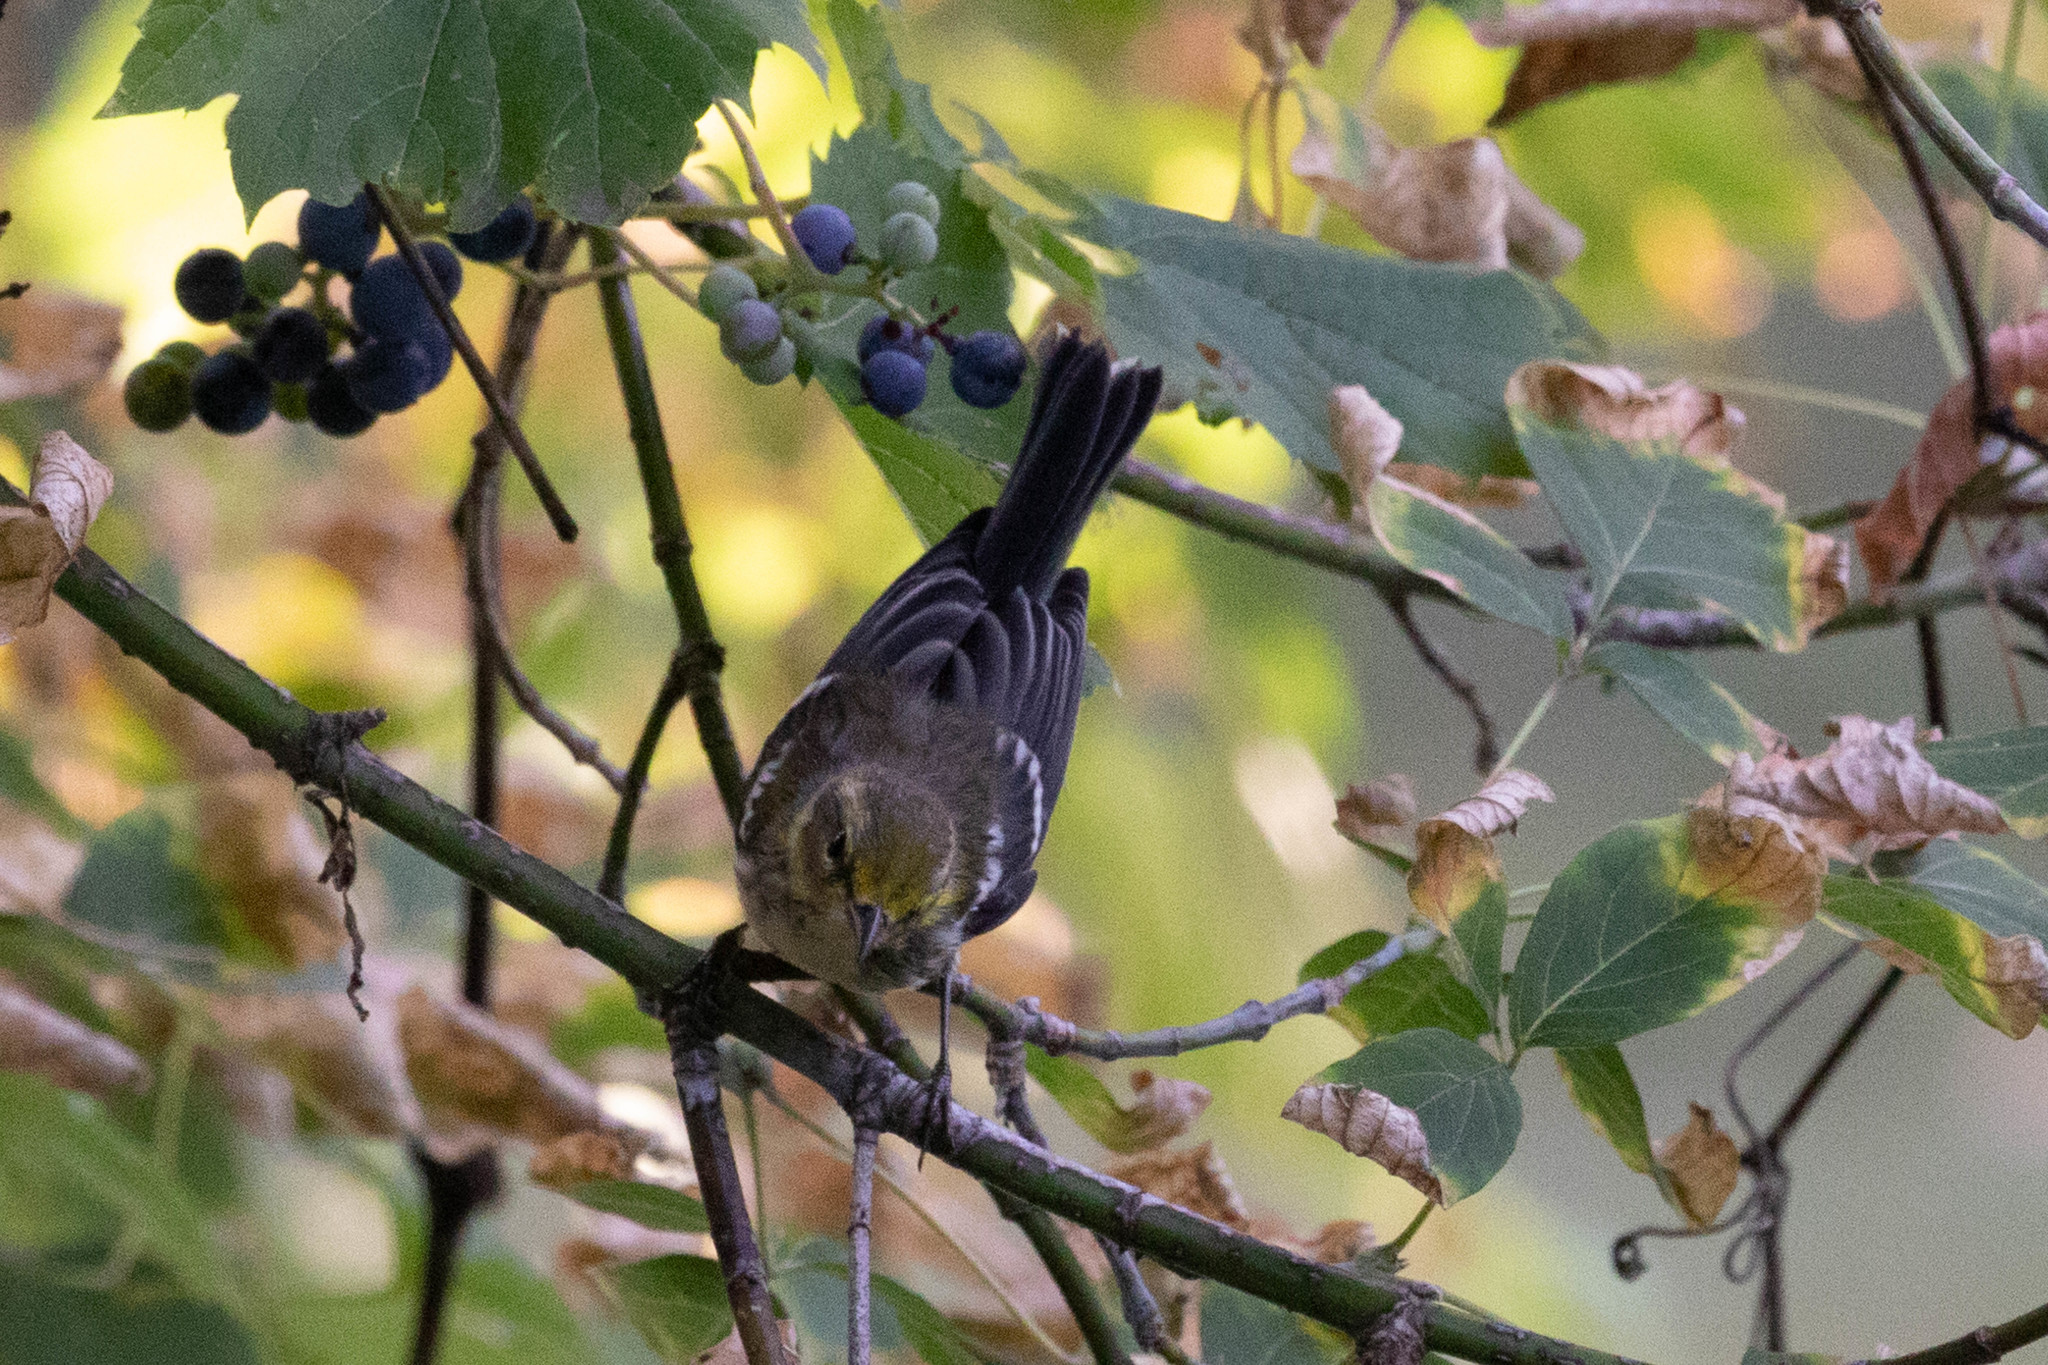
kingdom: Animalia
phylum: Chordata
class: Aves
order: Passeriformes
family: Parulidae
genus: Setophaga
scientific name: Setophaga virens
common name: Black-throated green warbler
